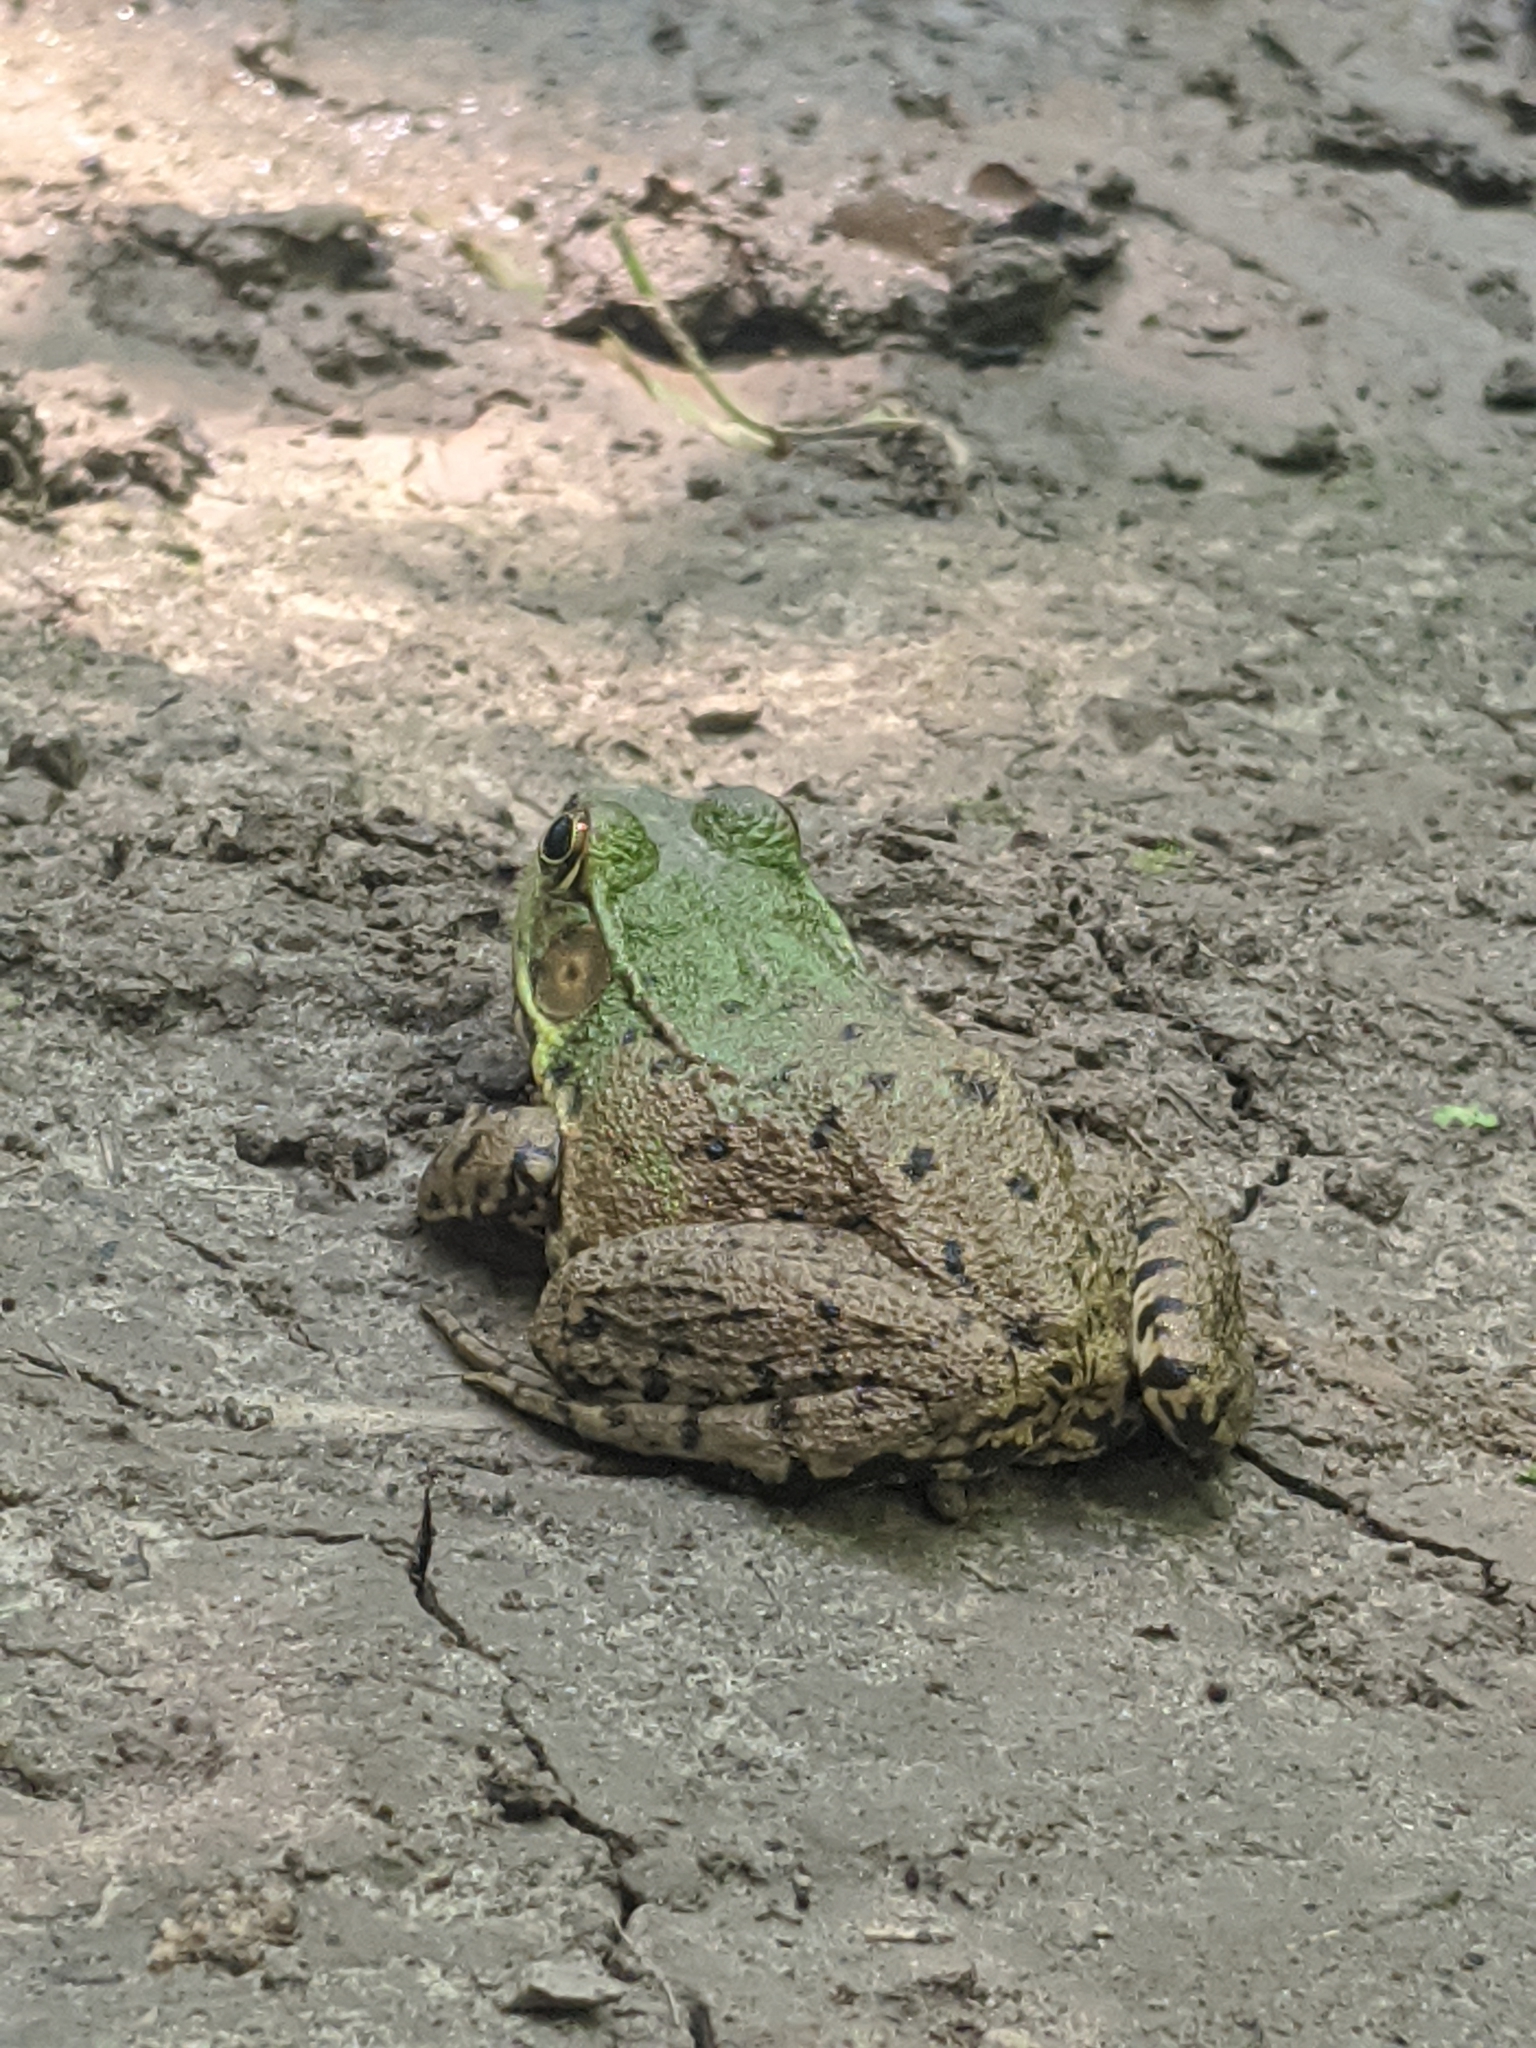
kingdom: Animalia
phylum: Chordata
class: Amphibia
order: Anura
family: Ranidae
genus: Lithobates
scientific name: Lithobates clamitans
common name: Green frog
